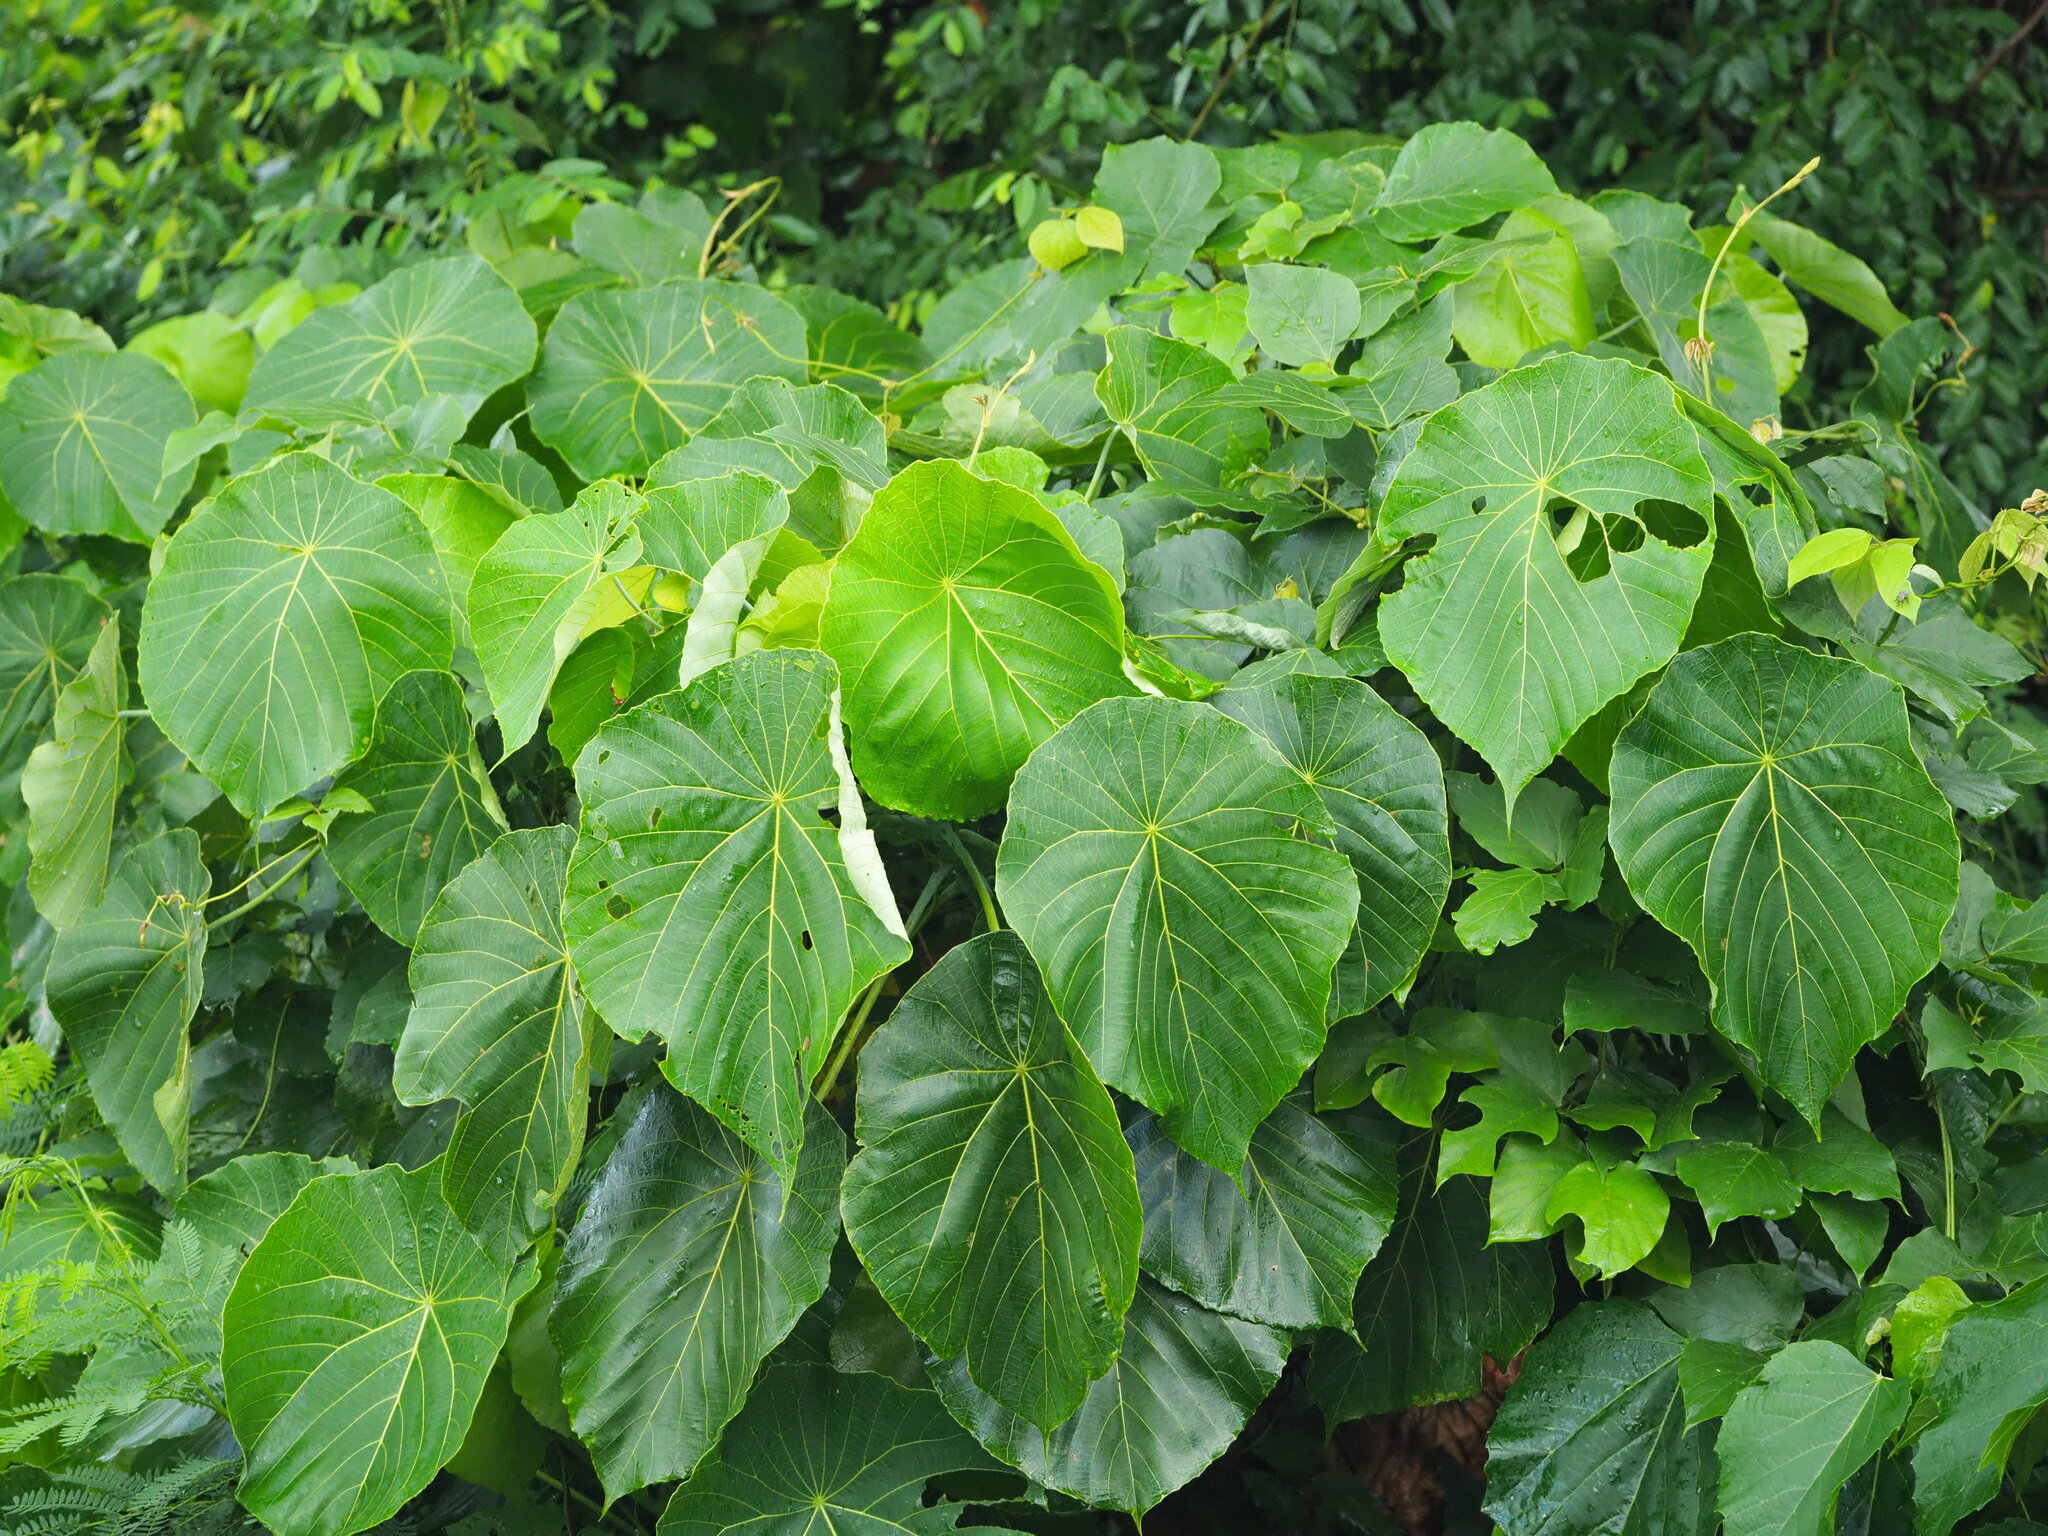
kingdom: Plantae
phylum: Tracheophyta
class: Magnoliopsida
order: Malpighiales
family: Euphorbiaceae
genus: Macaranga
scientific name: Macaranga tanarius
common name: Parasol leaf tree
